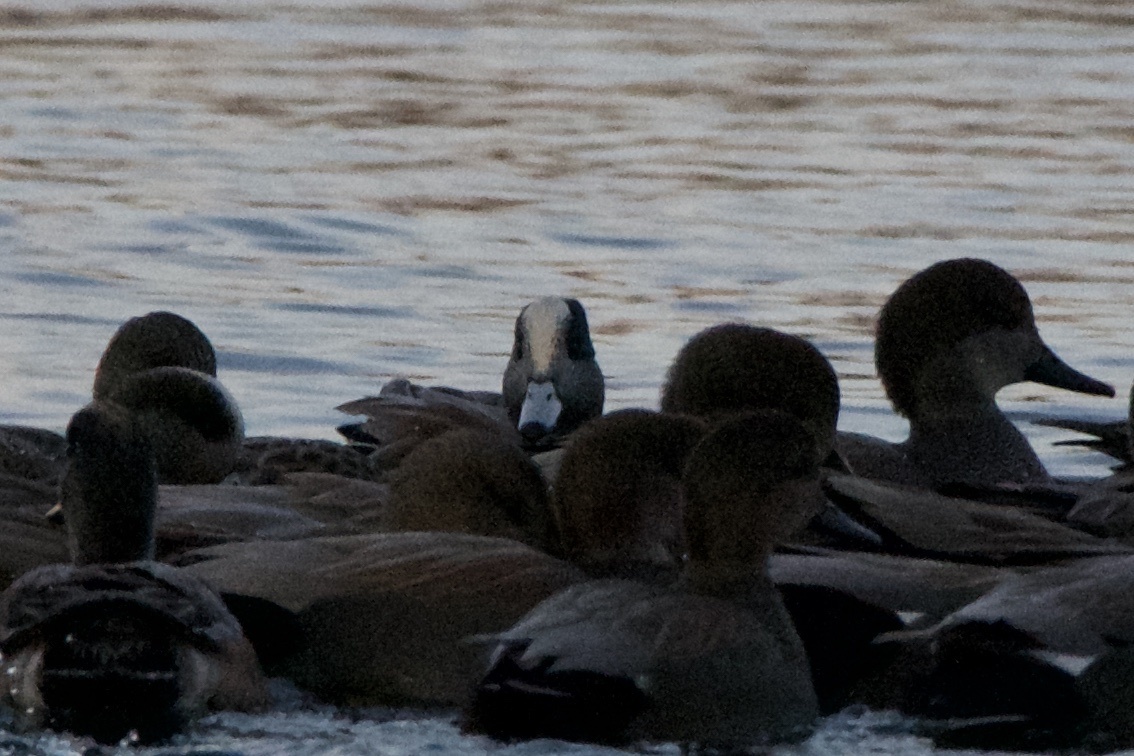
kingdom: Animalia
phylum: Chordata
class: Aves
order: Anseriformes
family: Anatidae
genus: Mareca
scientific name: Mareca americana
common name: American wigeon
